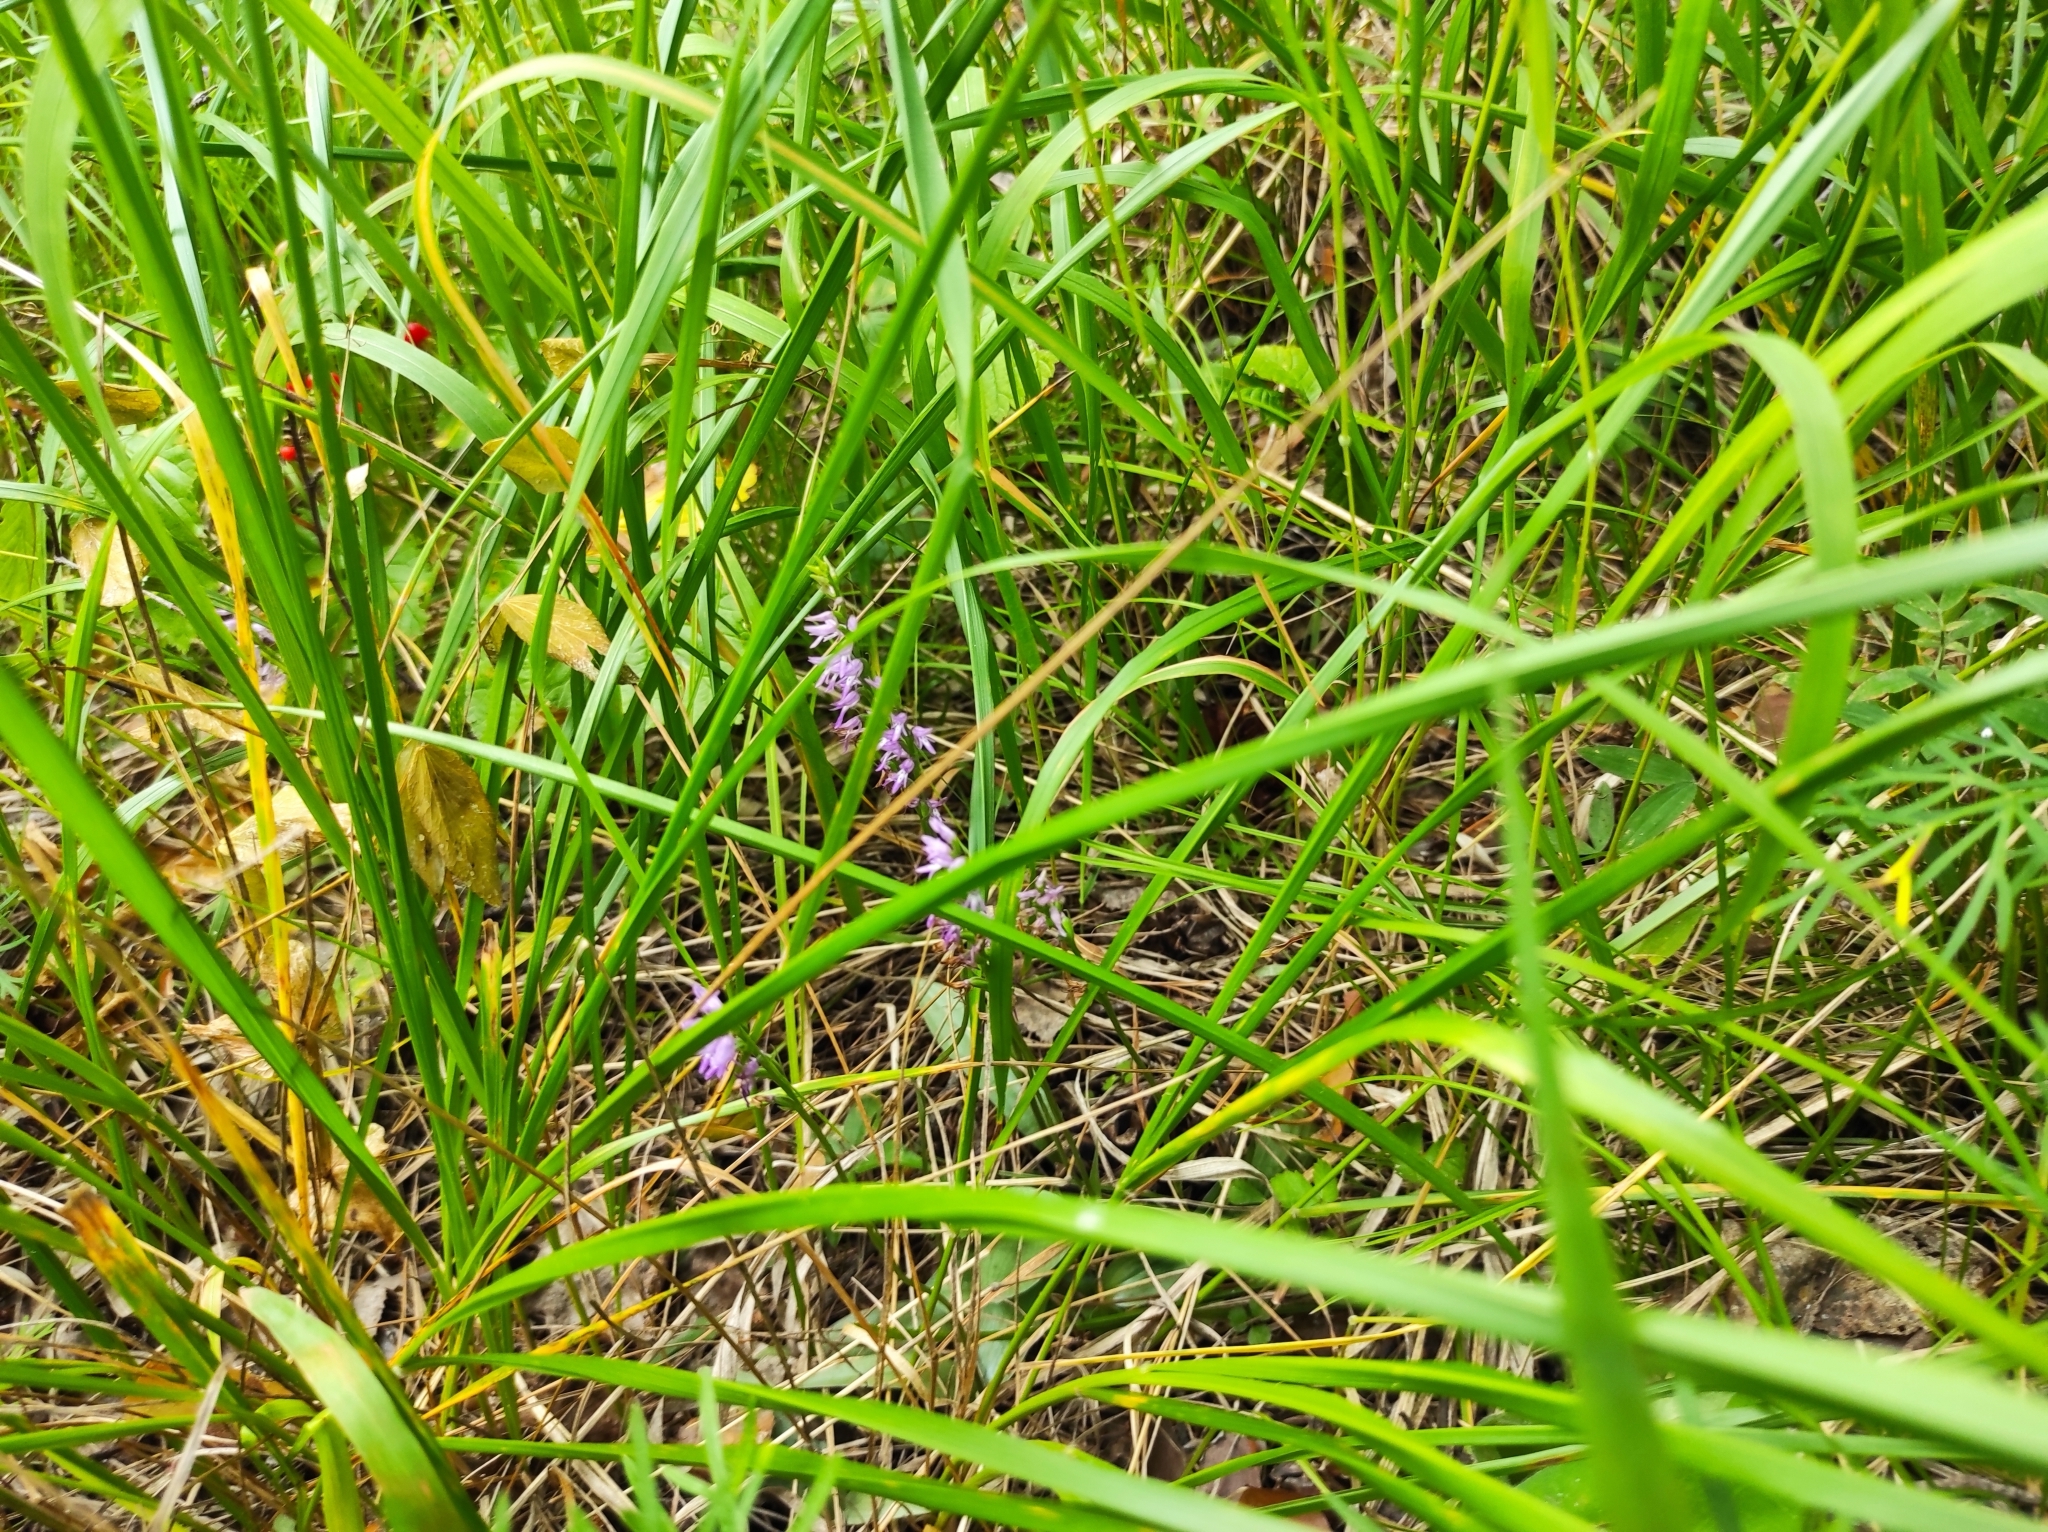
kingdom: Plantae
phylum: Tracheophyta
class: Liliopsida
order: Asparagales
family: Orchidaceae
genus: Hemipilia
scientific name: Hemipilia cucullata
